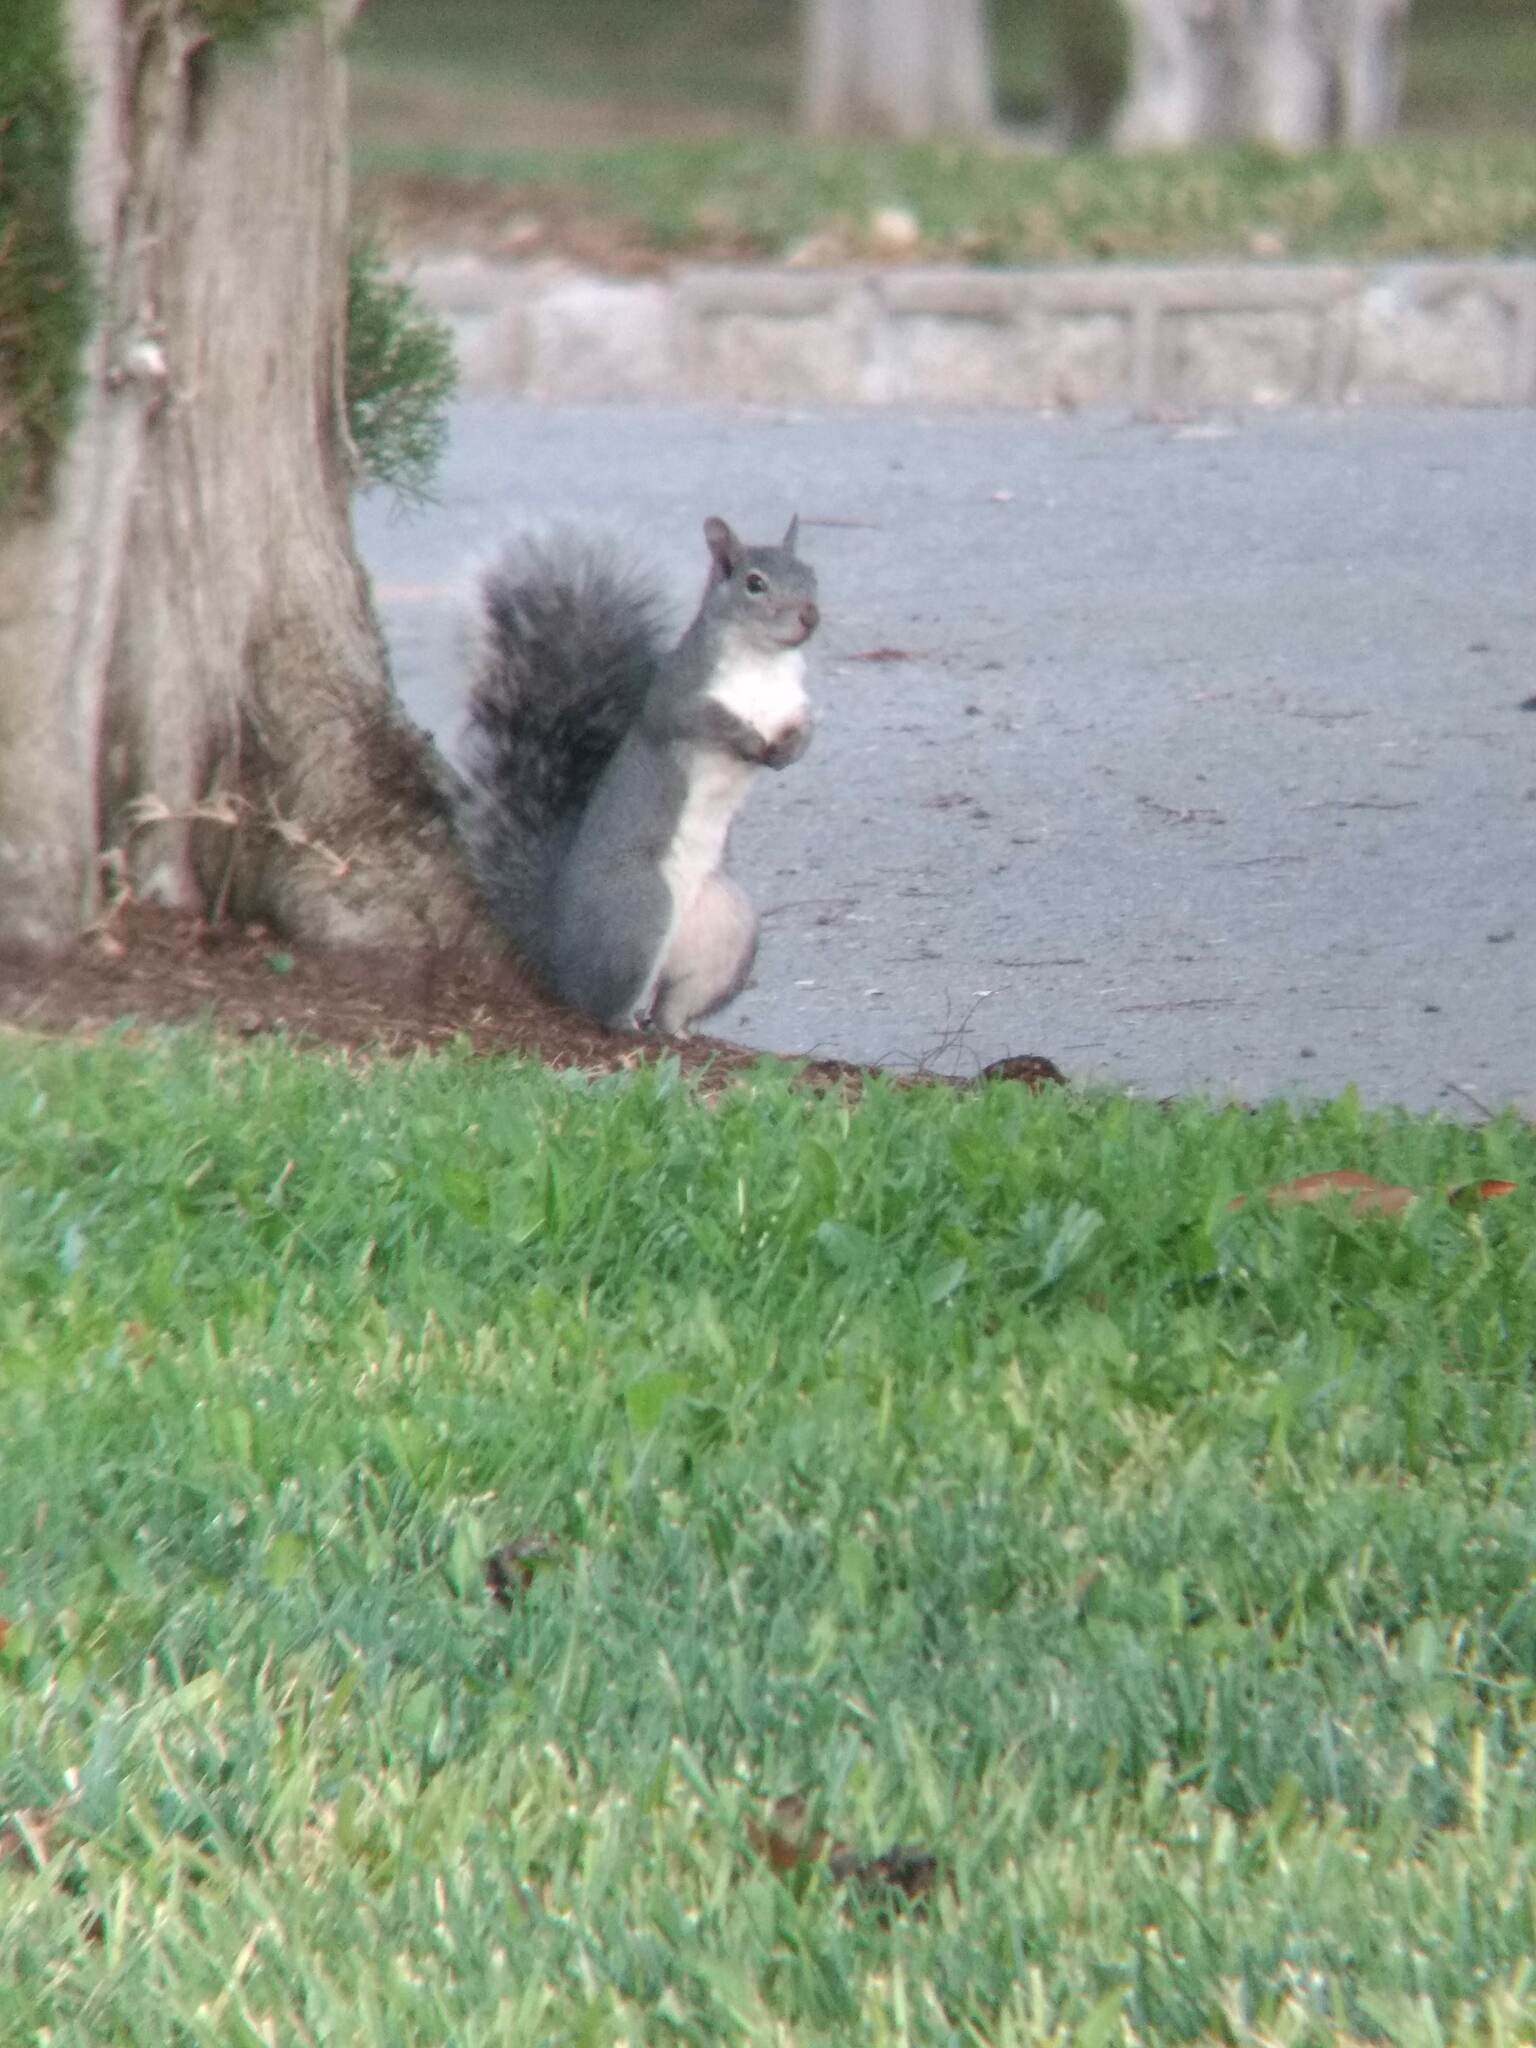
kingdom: Animalia
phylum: Chordata
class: Mammalia
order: Rodentia
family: Sciuridae
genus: Sciurus
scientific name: Sciurus griseus
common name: Western gray squirrel
